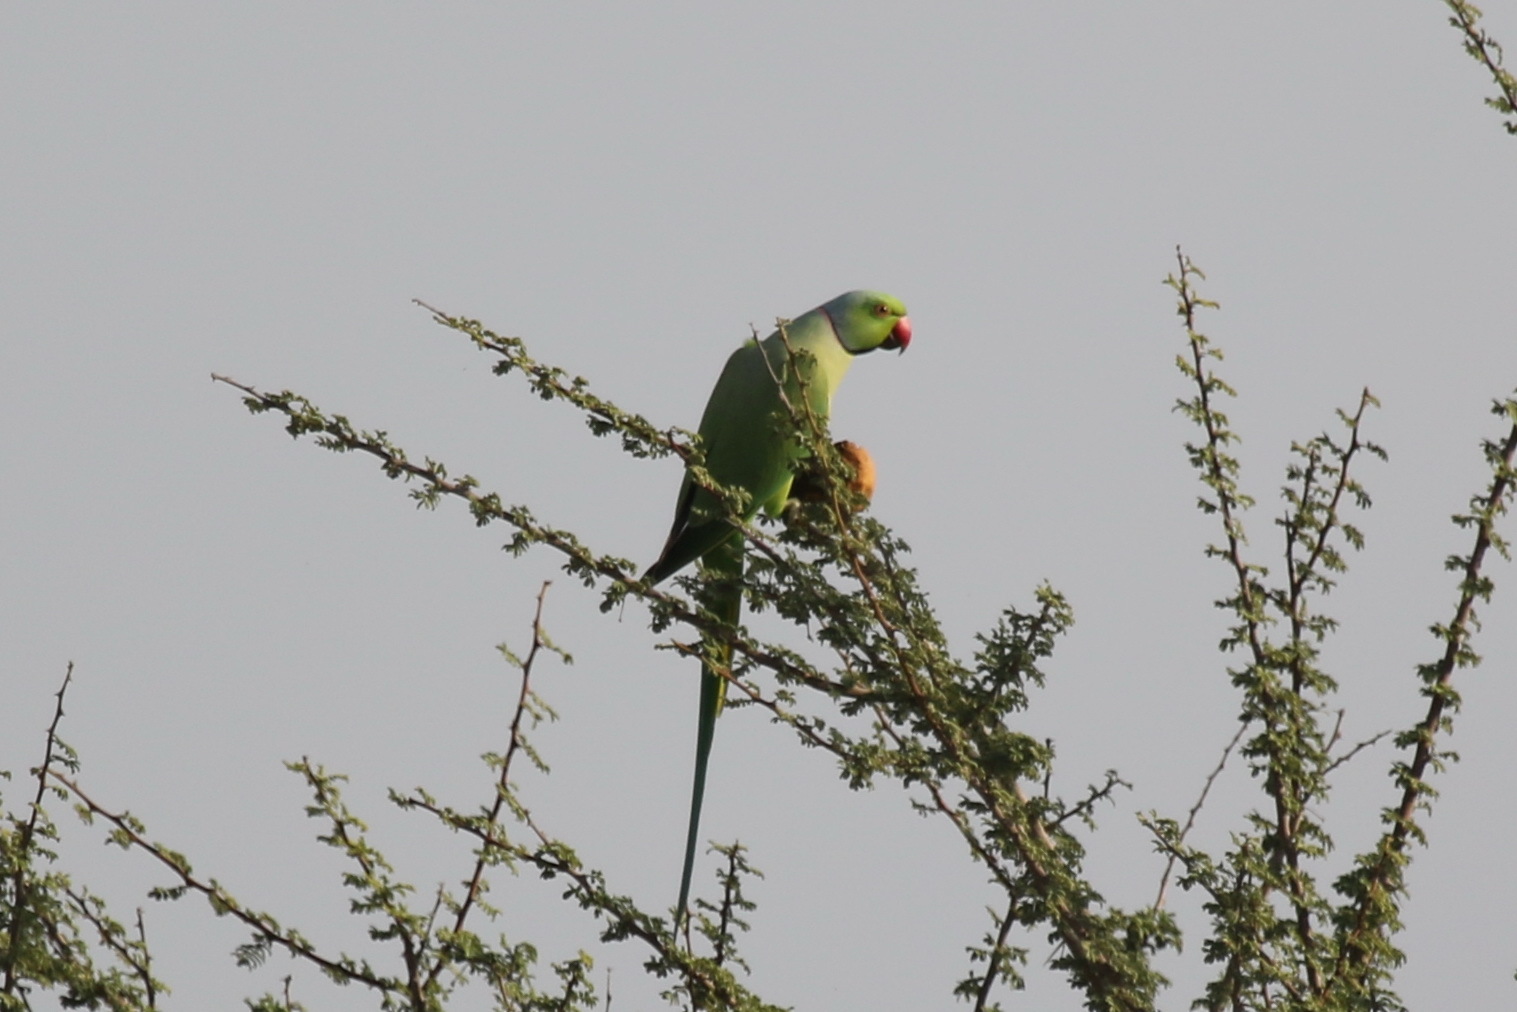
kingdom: Animalia
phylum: Chordata
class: Aves
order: Psittaciformes
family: Psittacidae
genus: Psittacula
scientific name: Psittacula krameri
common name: Rose-ringed parakeet
